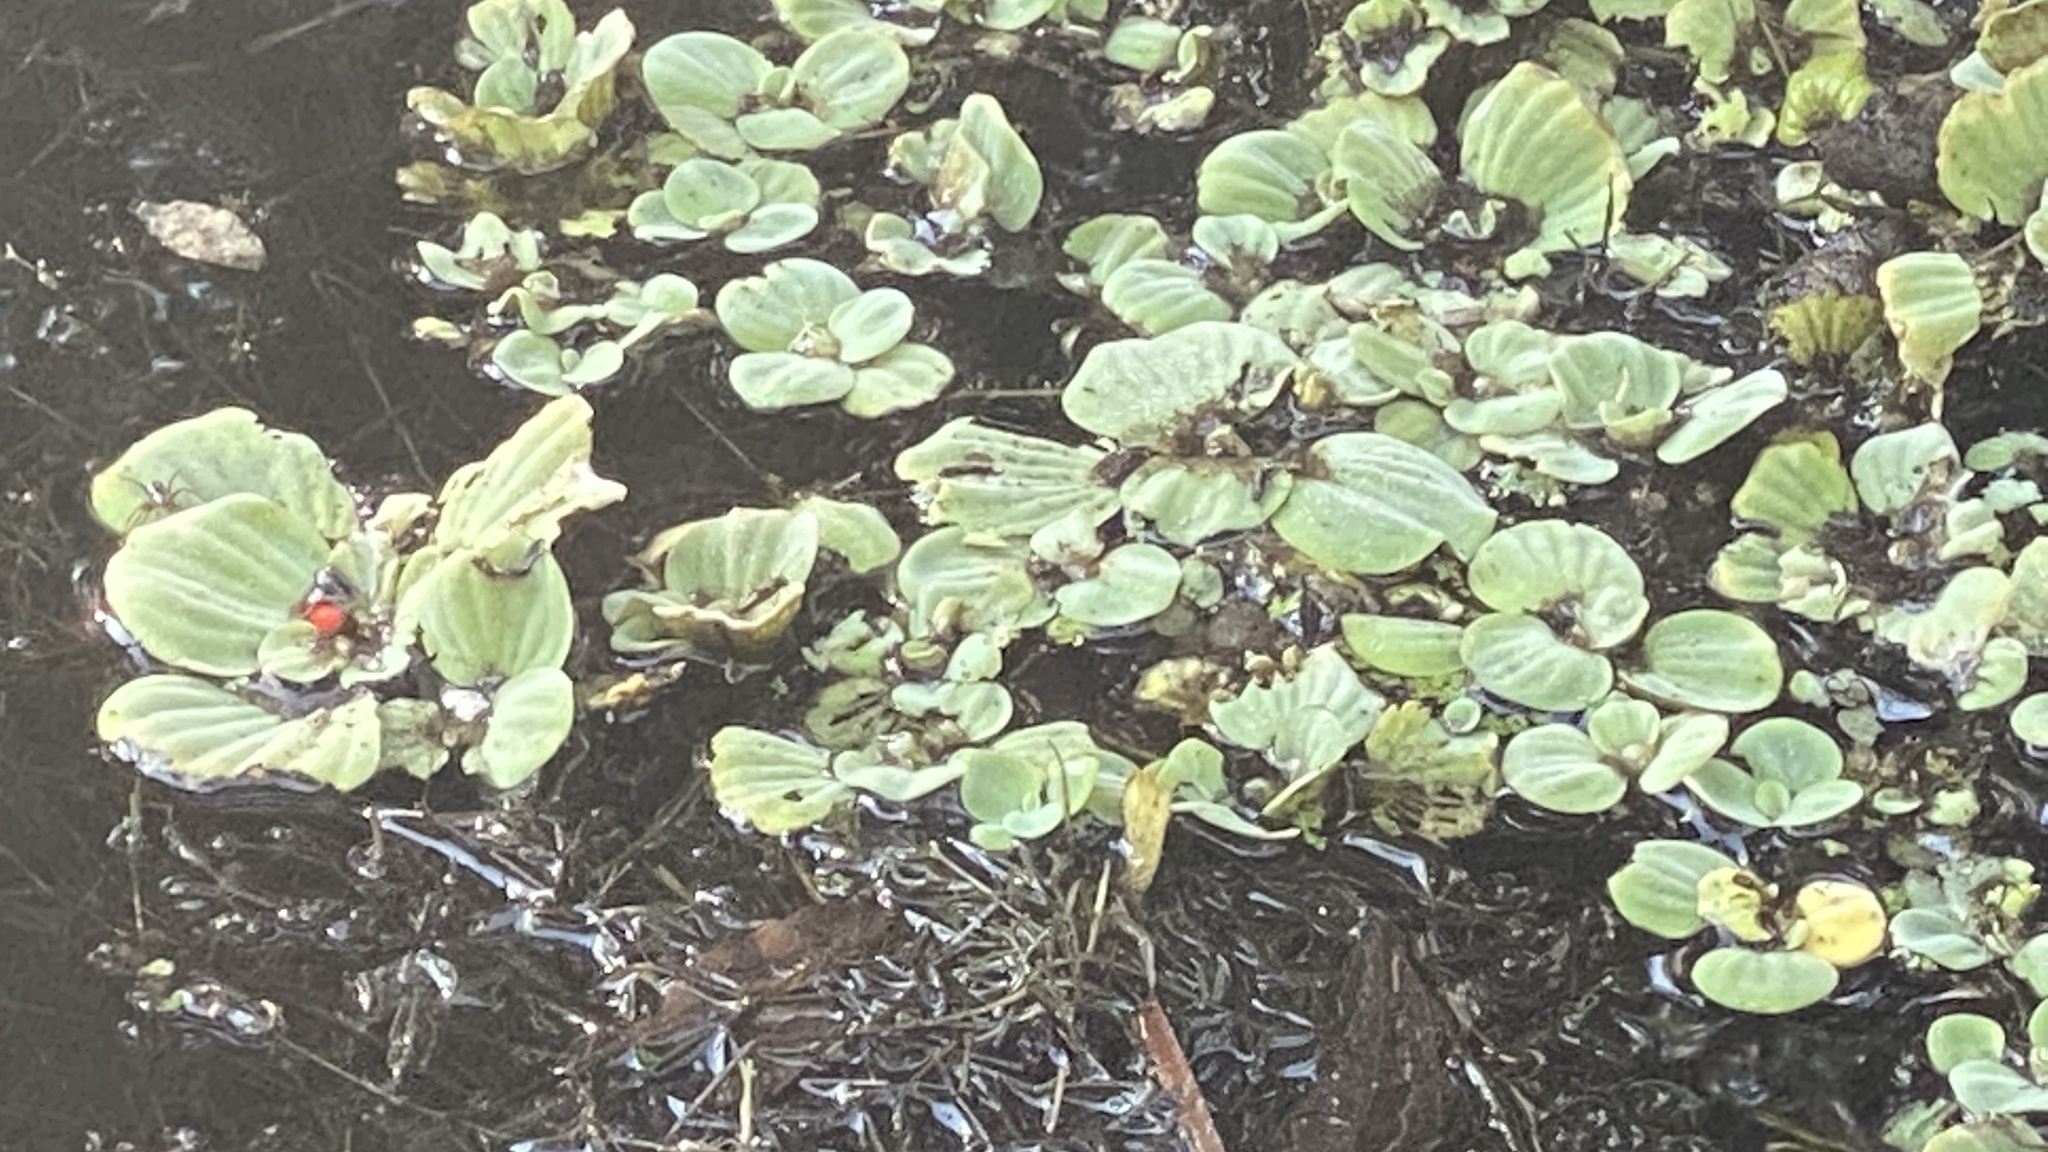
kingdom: Plantae
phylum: Tracheophyta
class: Liliopsida
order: Alismatales
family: Araceae
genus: Pistia
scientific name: Pistia stratiotes
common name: Water lettuce
